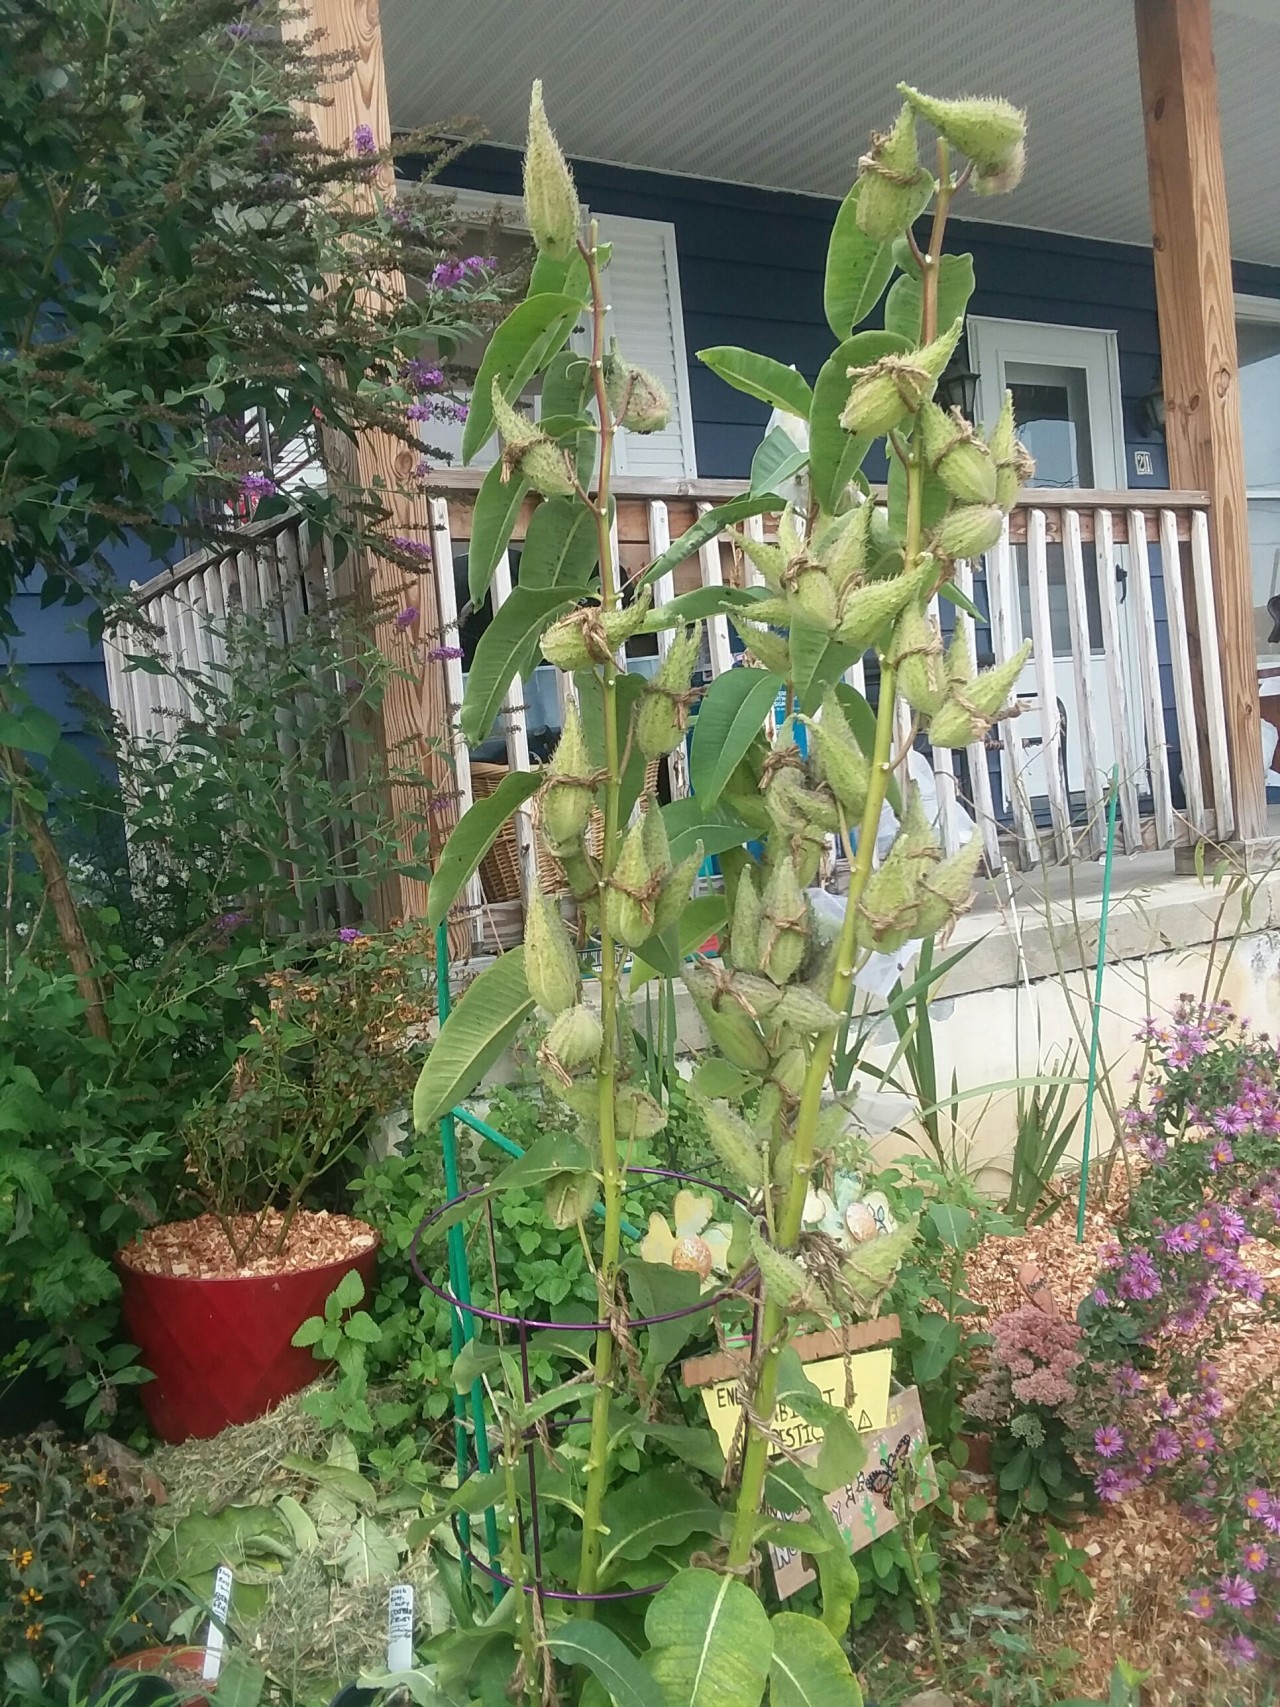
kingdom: Plantae
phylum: Tracheophyta
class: Magnoliopsida
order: Gentianales
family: Apocynaceae
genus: Asclepias
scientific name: Asclepias syriaca
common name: Common milkweed
